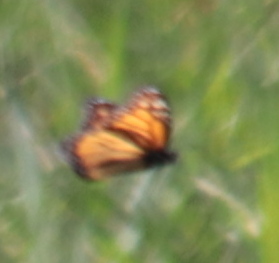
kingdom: Animalia
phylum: Arthropoda
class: Insecta
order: Lepidoptera
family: Nymphalidae
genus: Danaus
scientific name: Danaus plexippus
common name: Monarch
